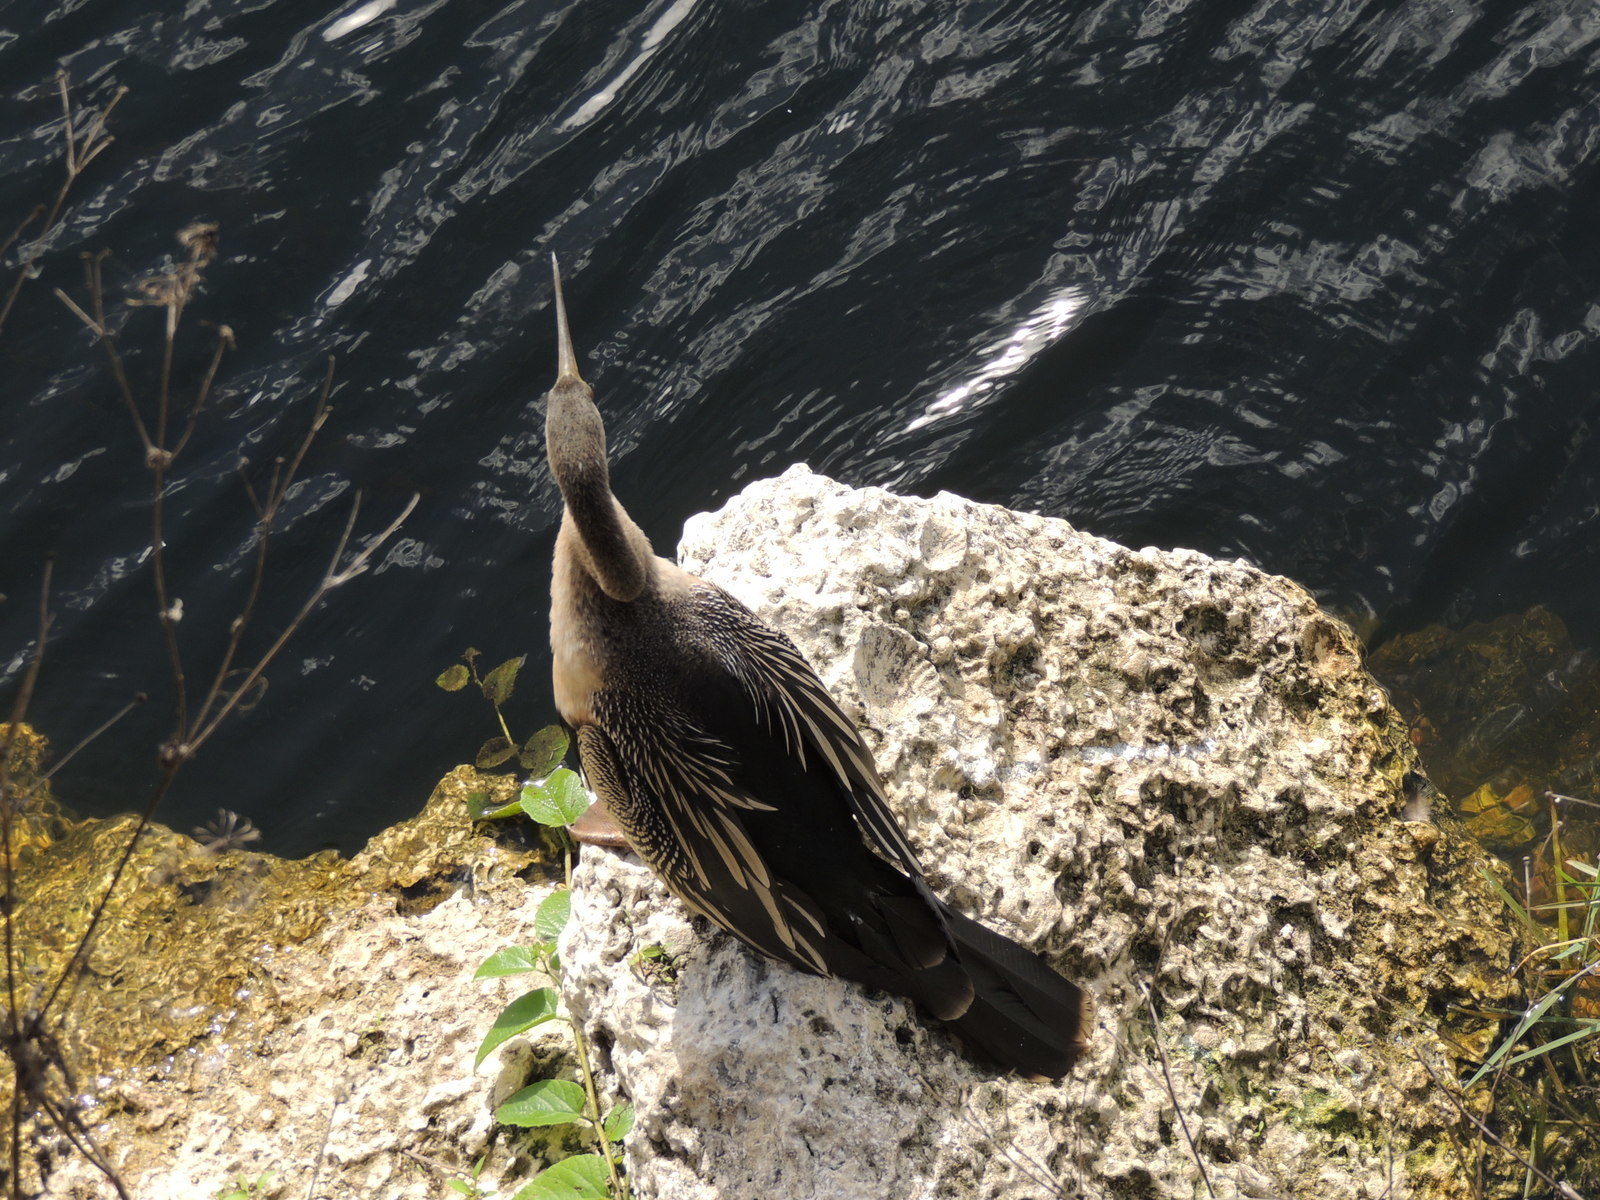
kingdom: Animalia
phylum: Chordata
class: Aves
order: Suliformes
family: Anhingidae
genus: Anhinga
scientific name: Anhinga anhinga
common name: Anhinga
